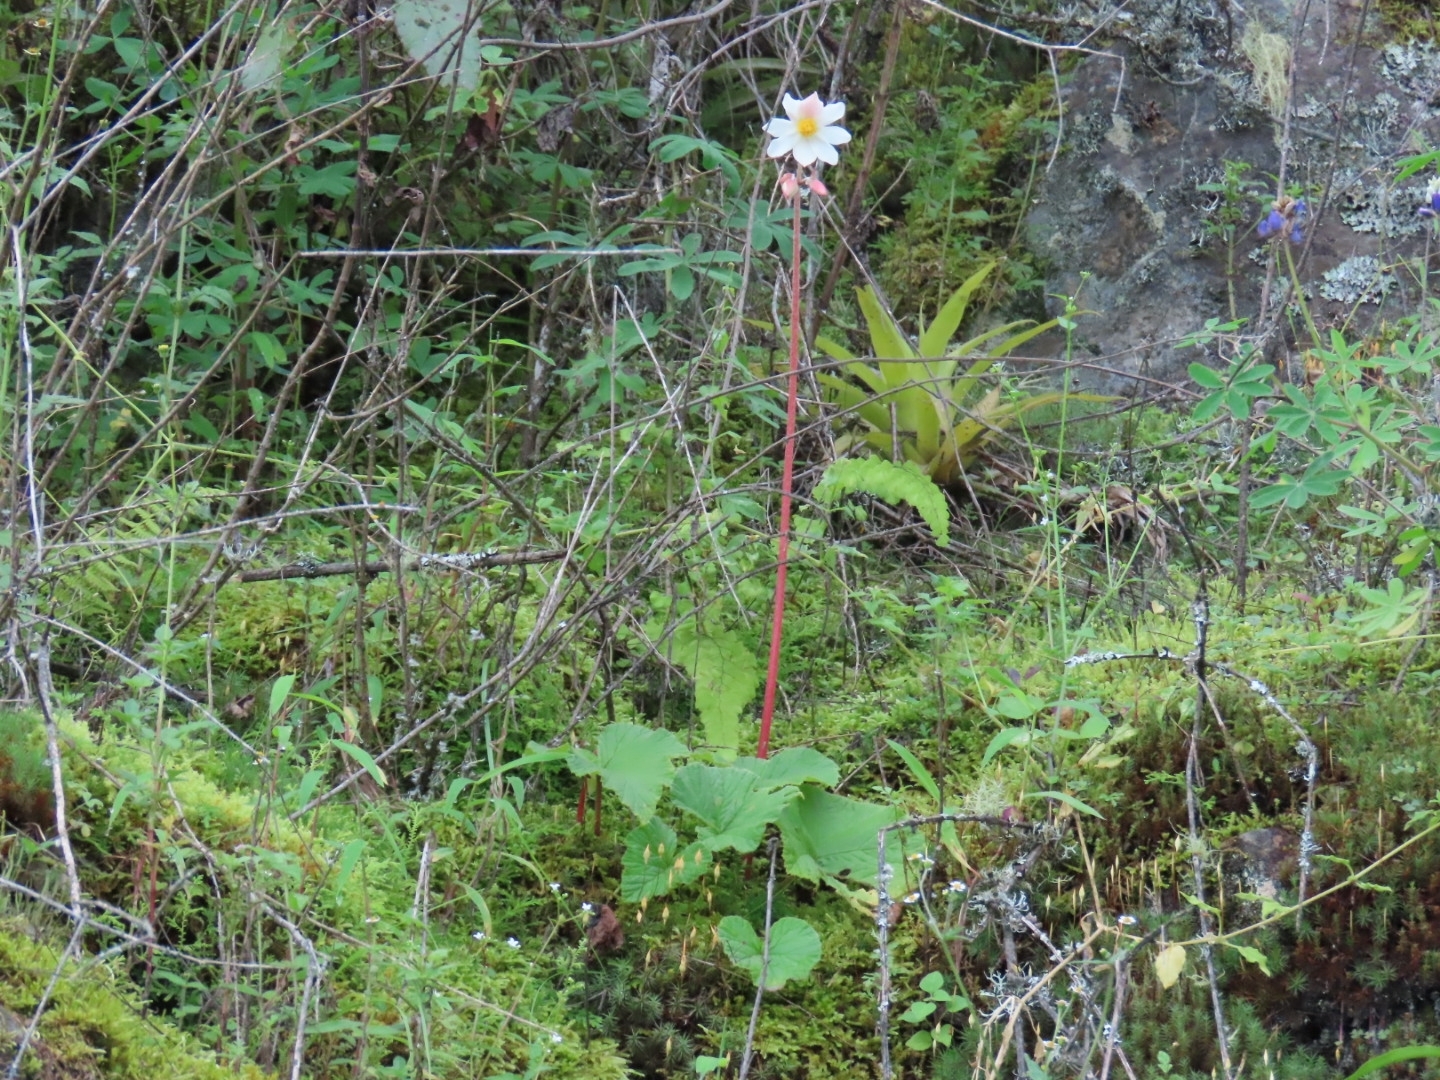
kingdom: Plantae
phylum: Tracheophyta
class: Magnoliopsida
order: Cucurbitales
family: Begoniaceae
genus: Begonia
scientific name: Begonia octopetala
